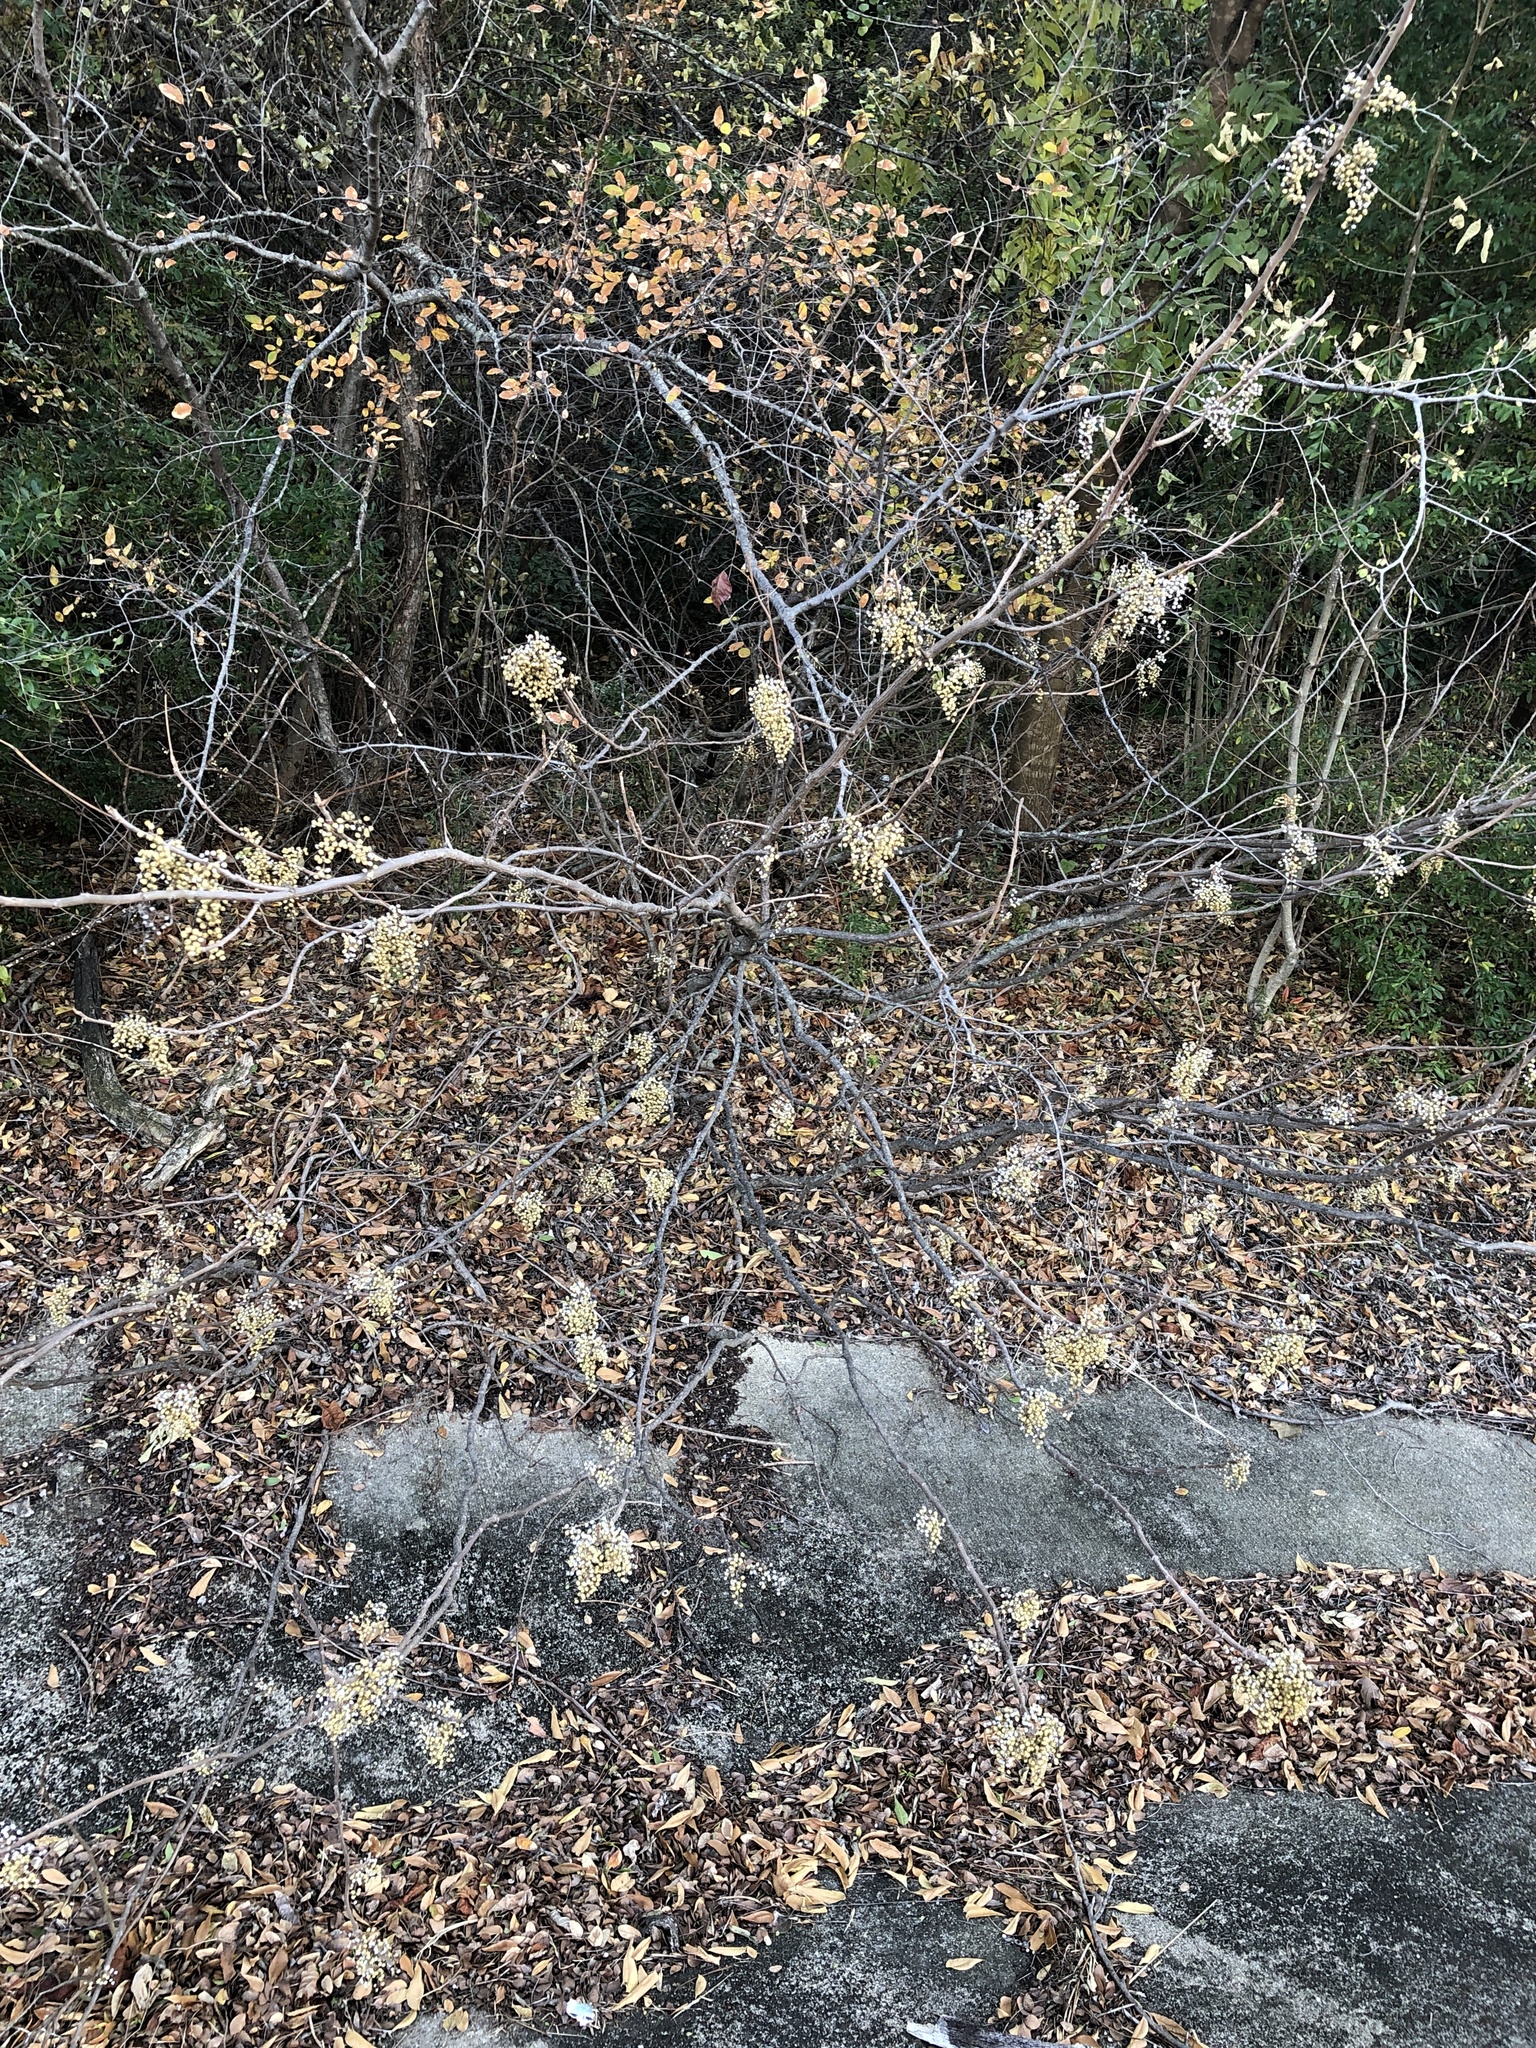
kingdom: Plantae
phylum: Tracheophyta
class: Magnoliopsida
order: Sapindales
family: Anacardiaceae
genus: Toxicodendron
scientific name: Toxicodendron radicans
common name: Poison ivy
